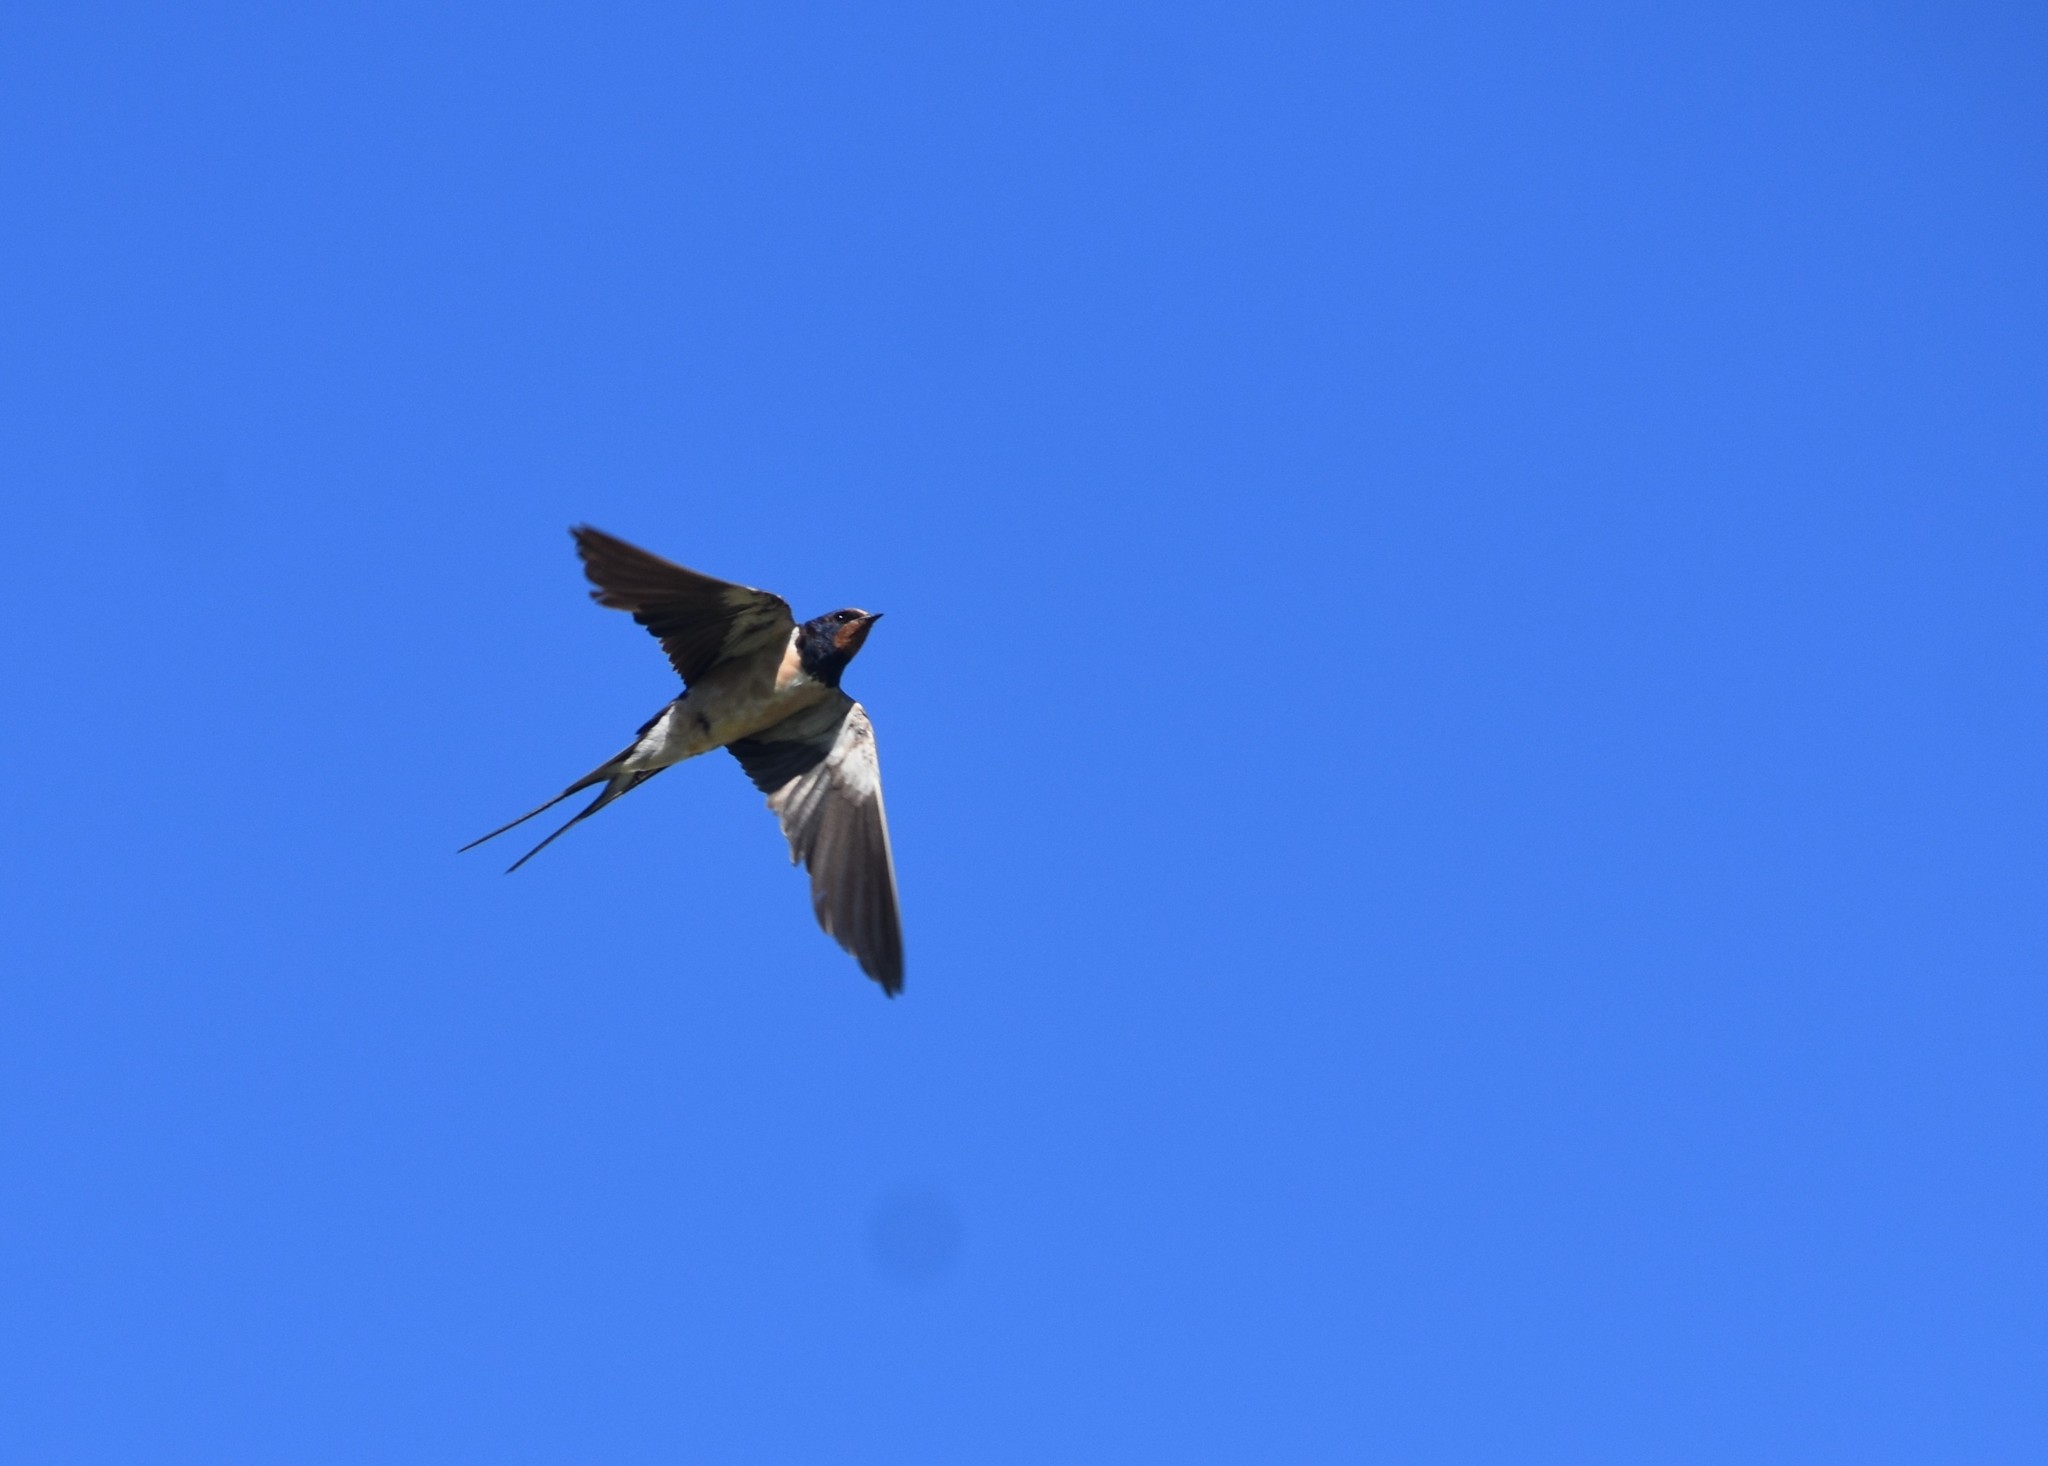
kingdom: Animalia
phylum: Chordata
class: Aves
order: Passeriformes
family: Hirundinidae
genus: Hirundo
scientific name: Hirundo rustica
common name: Barn swallow
